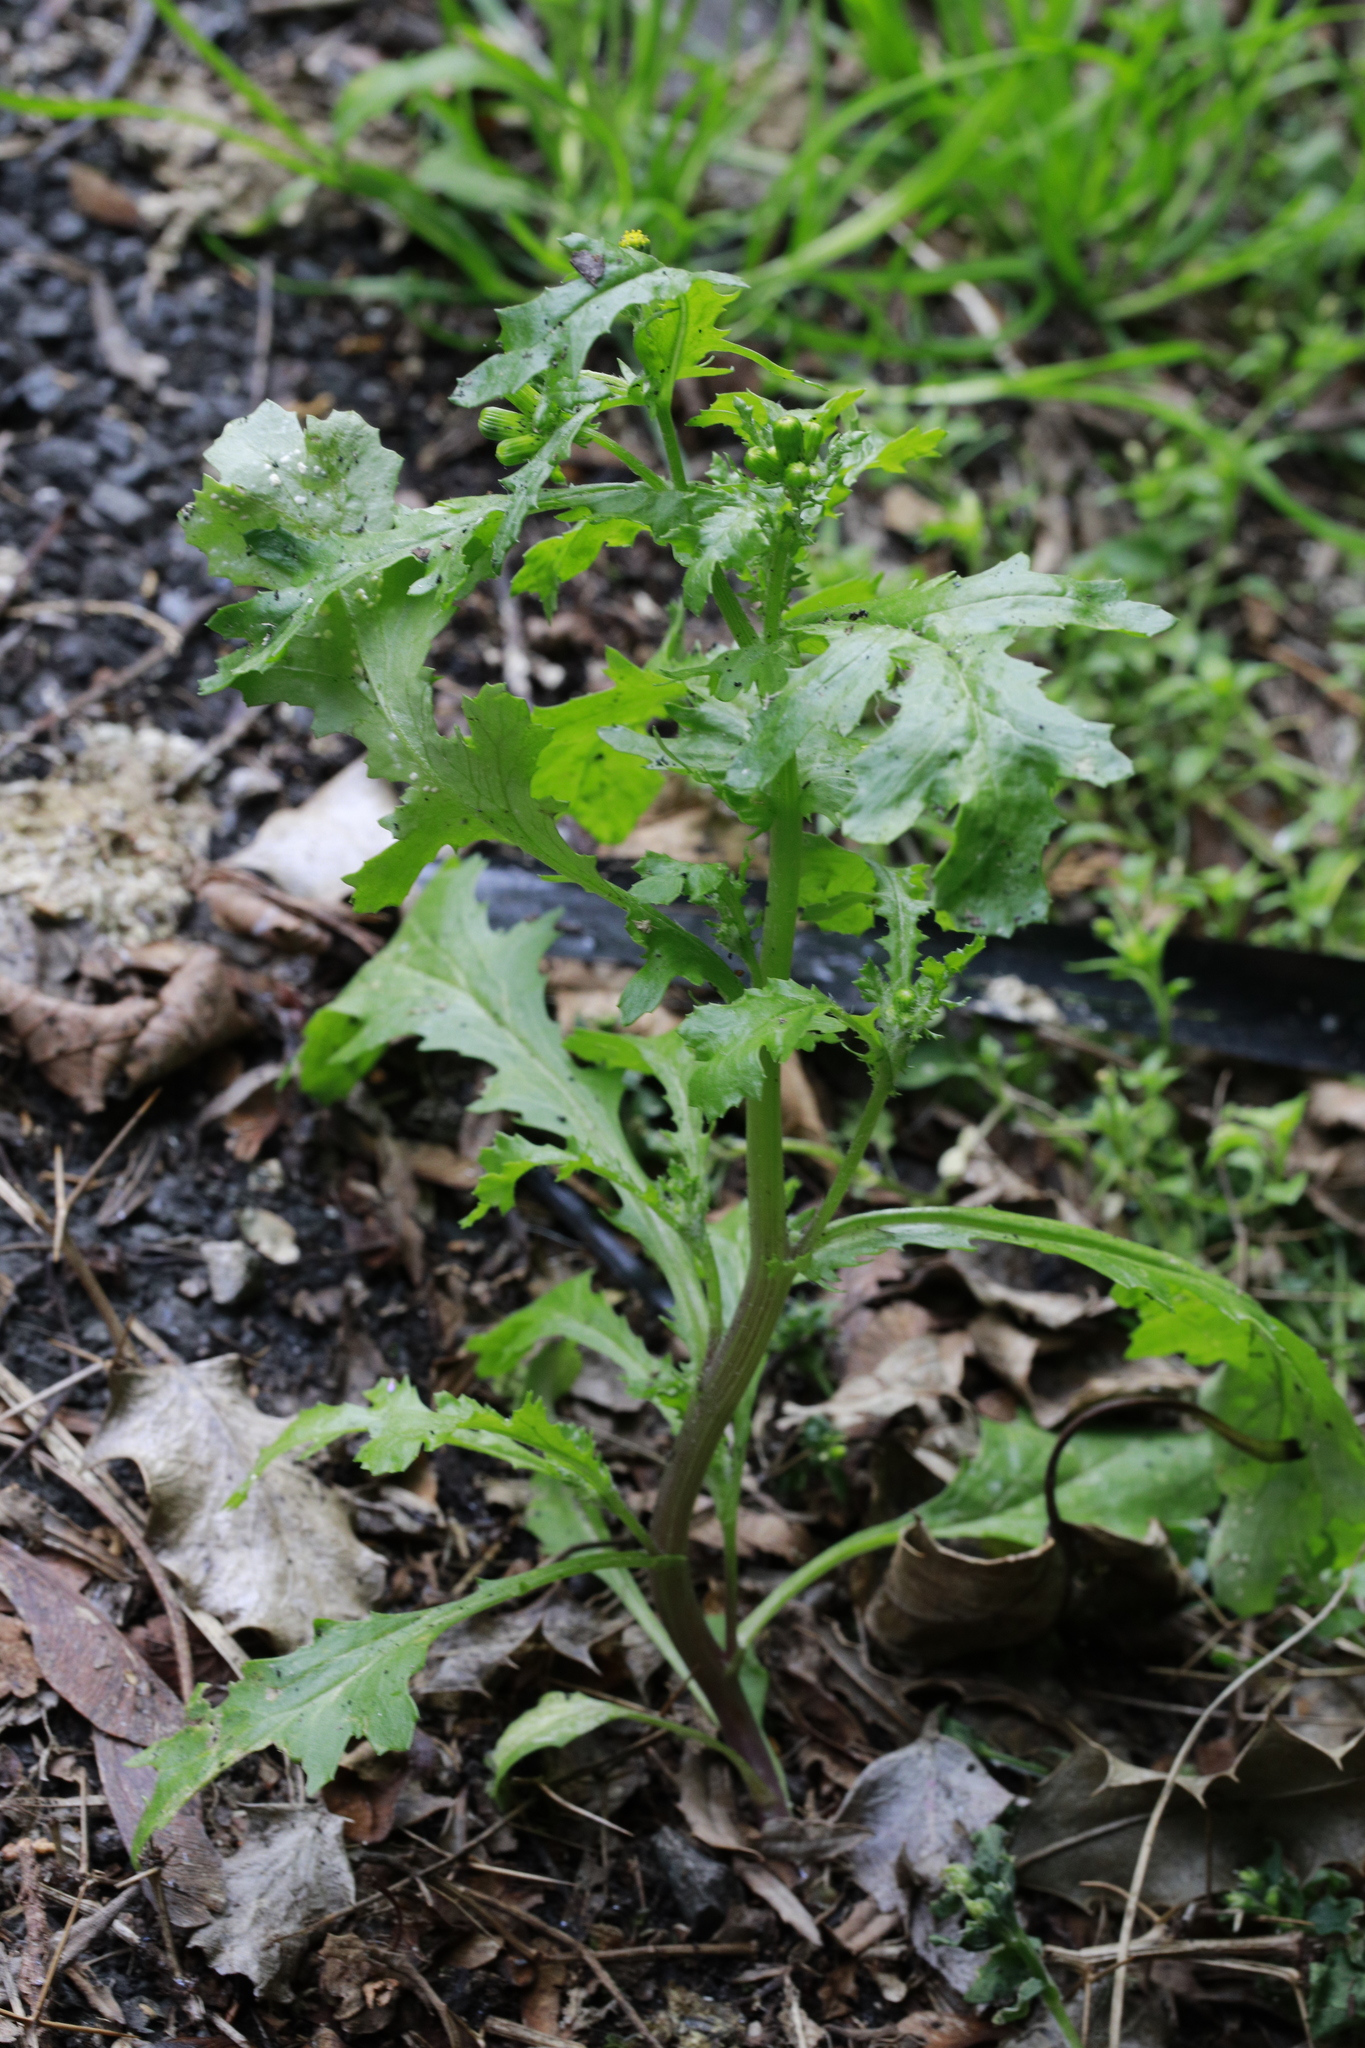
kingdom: Plantae
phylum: Tracheophyta
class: Magnoliopsida
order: Asterales
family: Asteraceae
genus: Senecio
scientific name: Senecio vulgaris
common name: Old-man-in-the-spring
